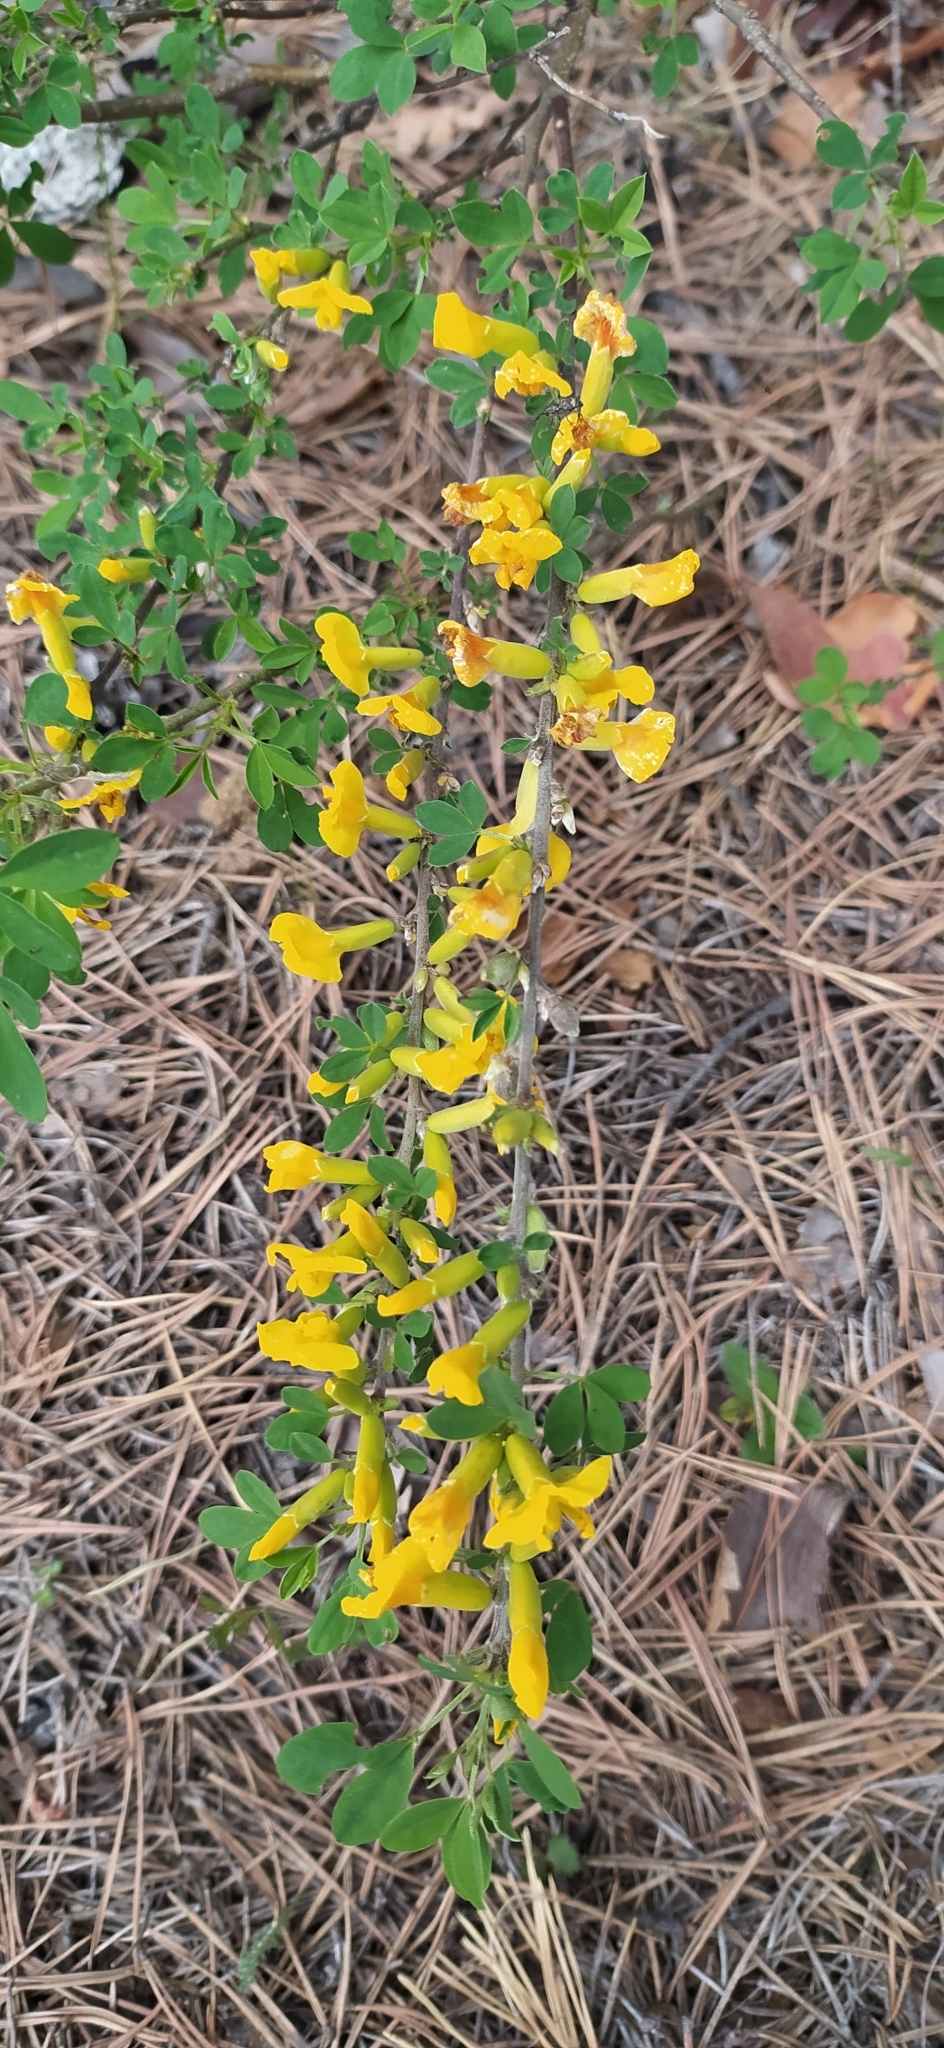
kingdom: Plantae
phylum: Tracheophyta
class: Magnoliopsida
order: Fabales
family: Fabaceae
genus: Chamaecytisus
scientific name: Chamaecytisus ruthenicus
